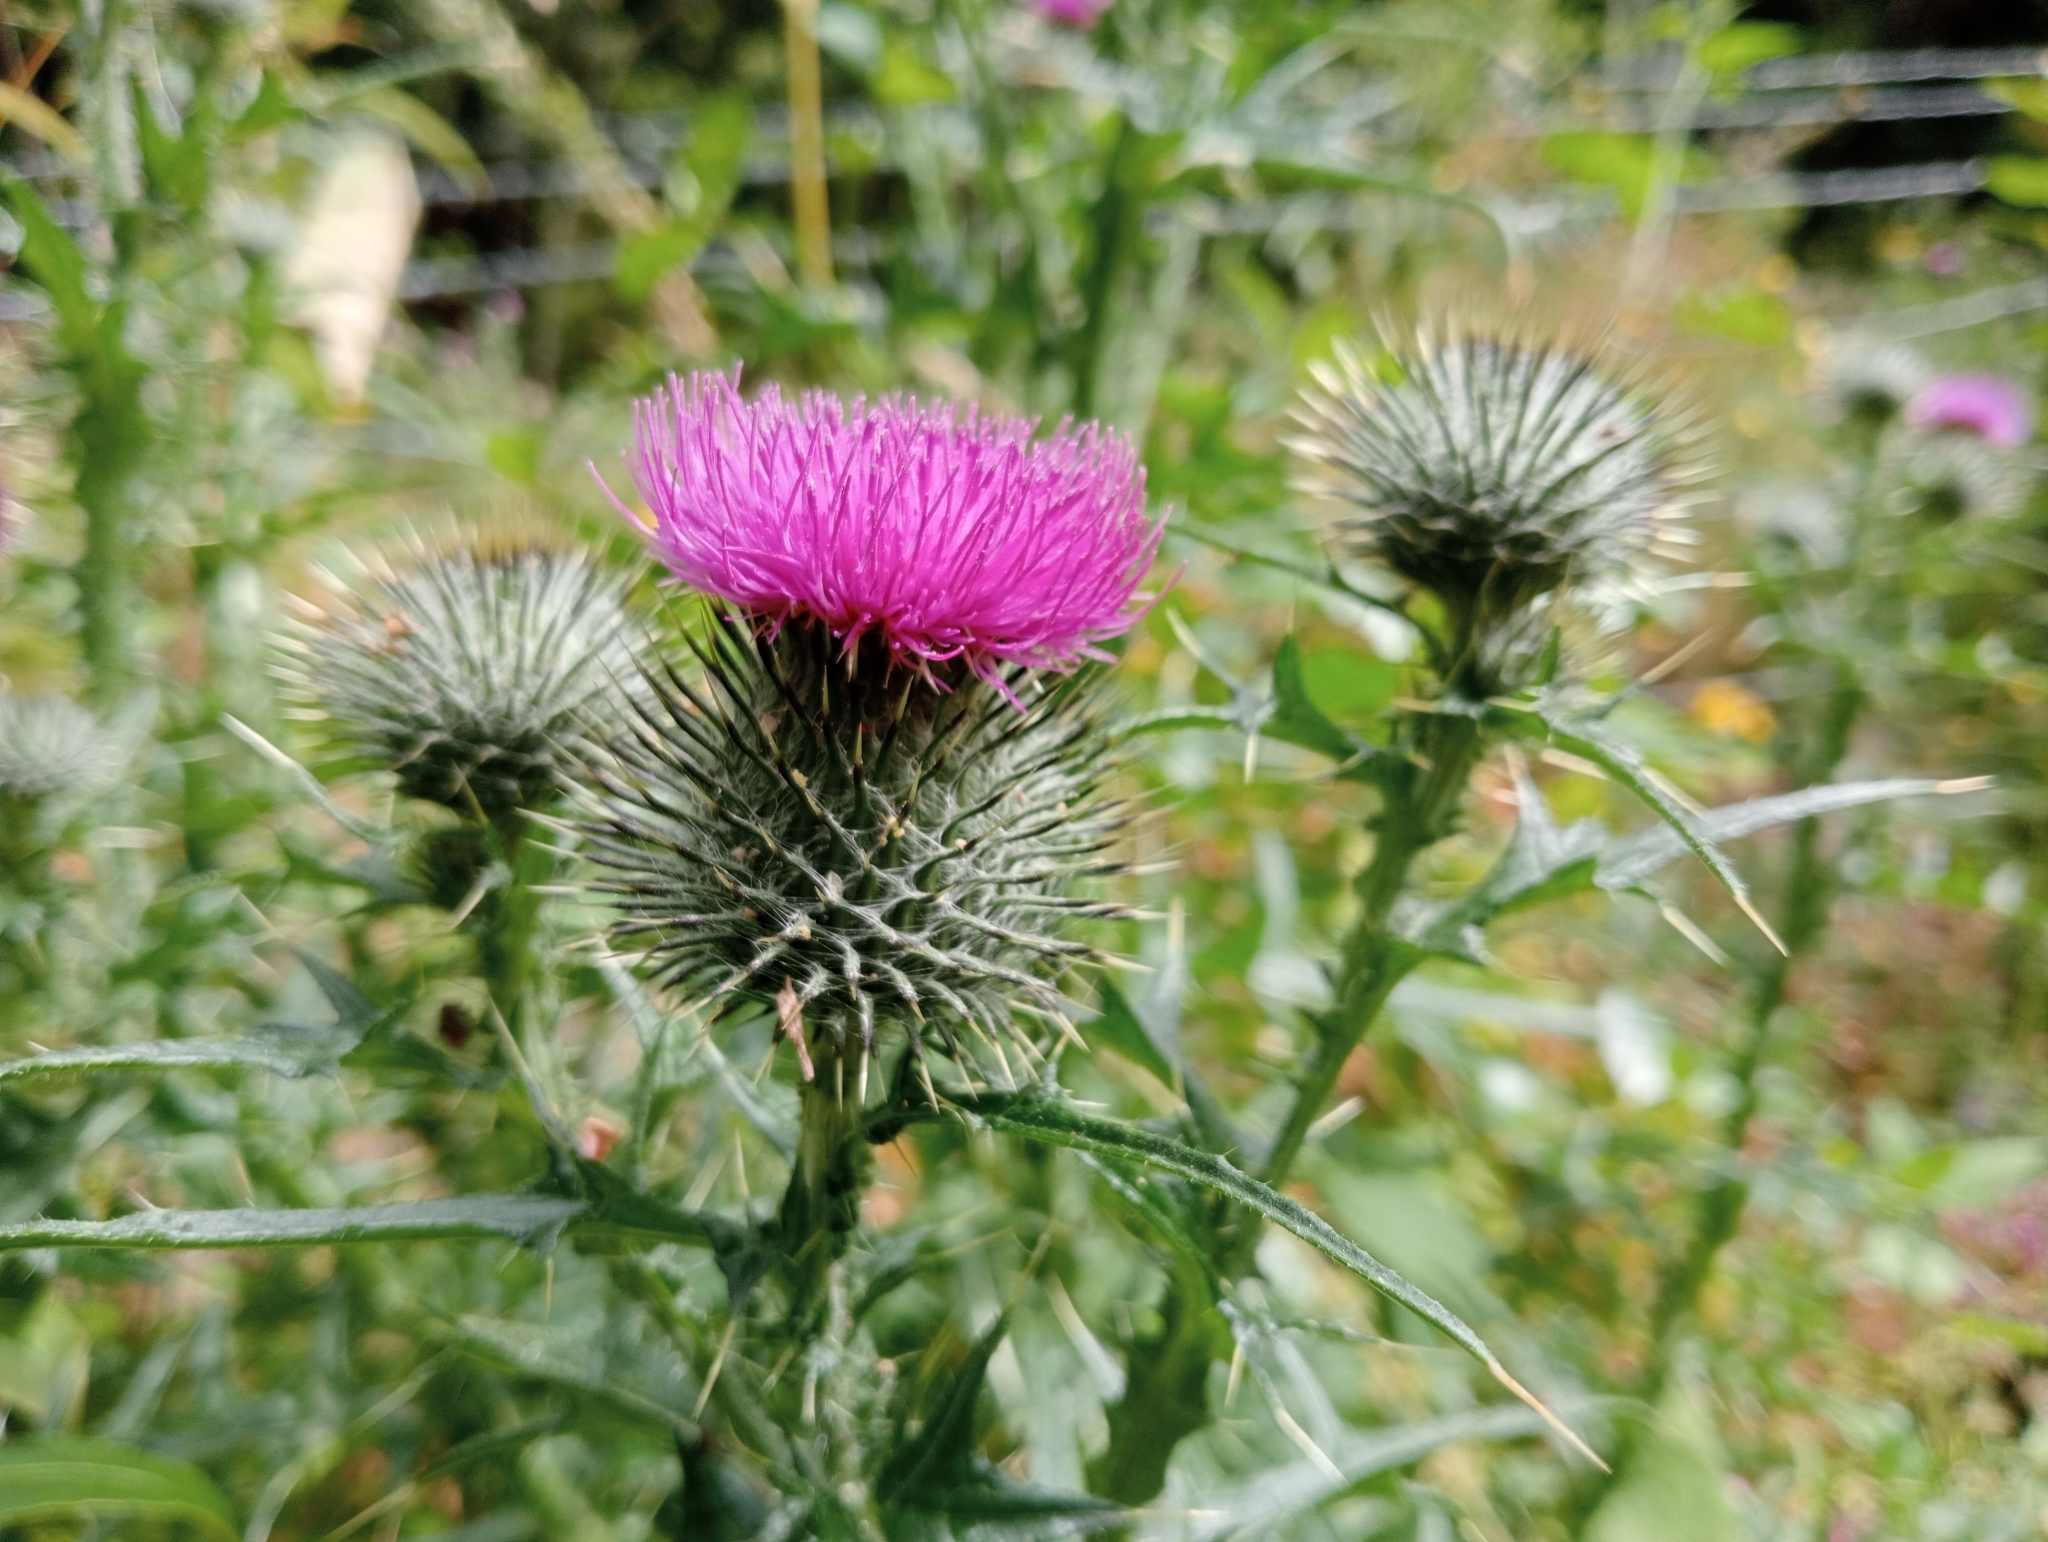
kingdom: Plantae
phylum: Tracheophyta
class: Magnoliopsida
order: Asterales
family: Asteraceae
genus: Cirsium
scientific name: Cirsium vulgare
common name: Bull thistle
